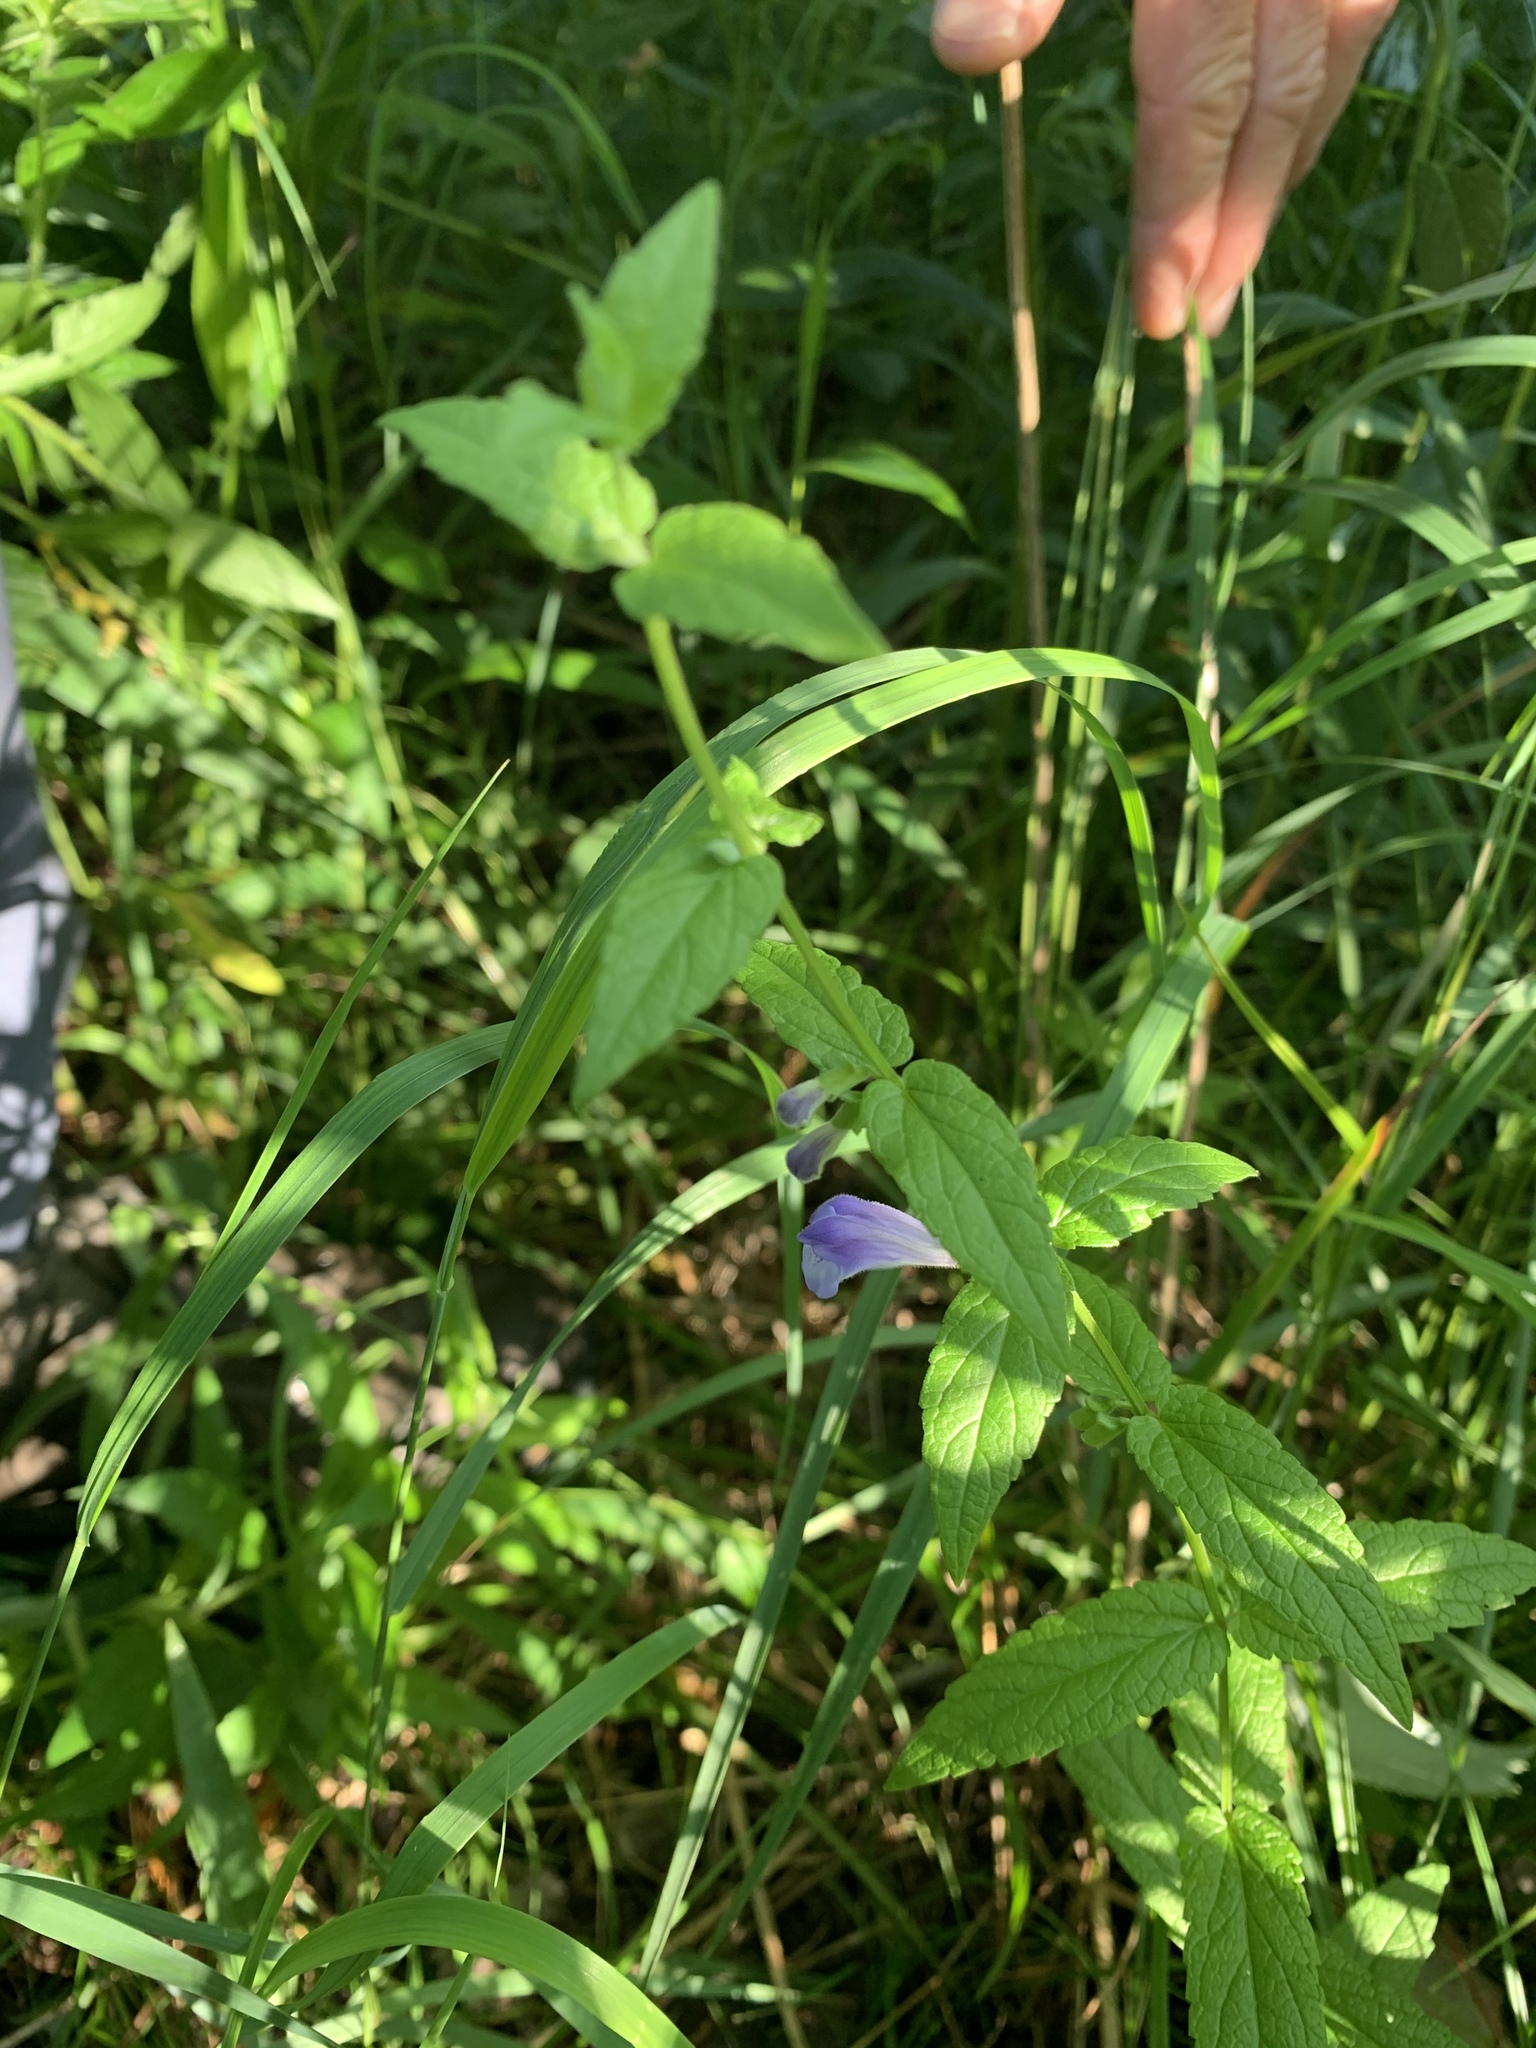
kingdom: Plantae
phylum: Tracheophyta
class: Magnoliopsida
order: Lamiales
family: Lamiaceae
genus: Scutellaria
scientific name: Scutellaria galericulata
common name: Skullcap
